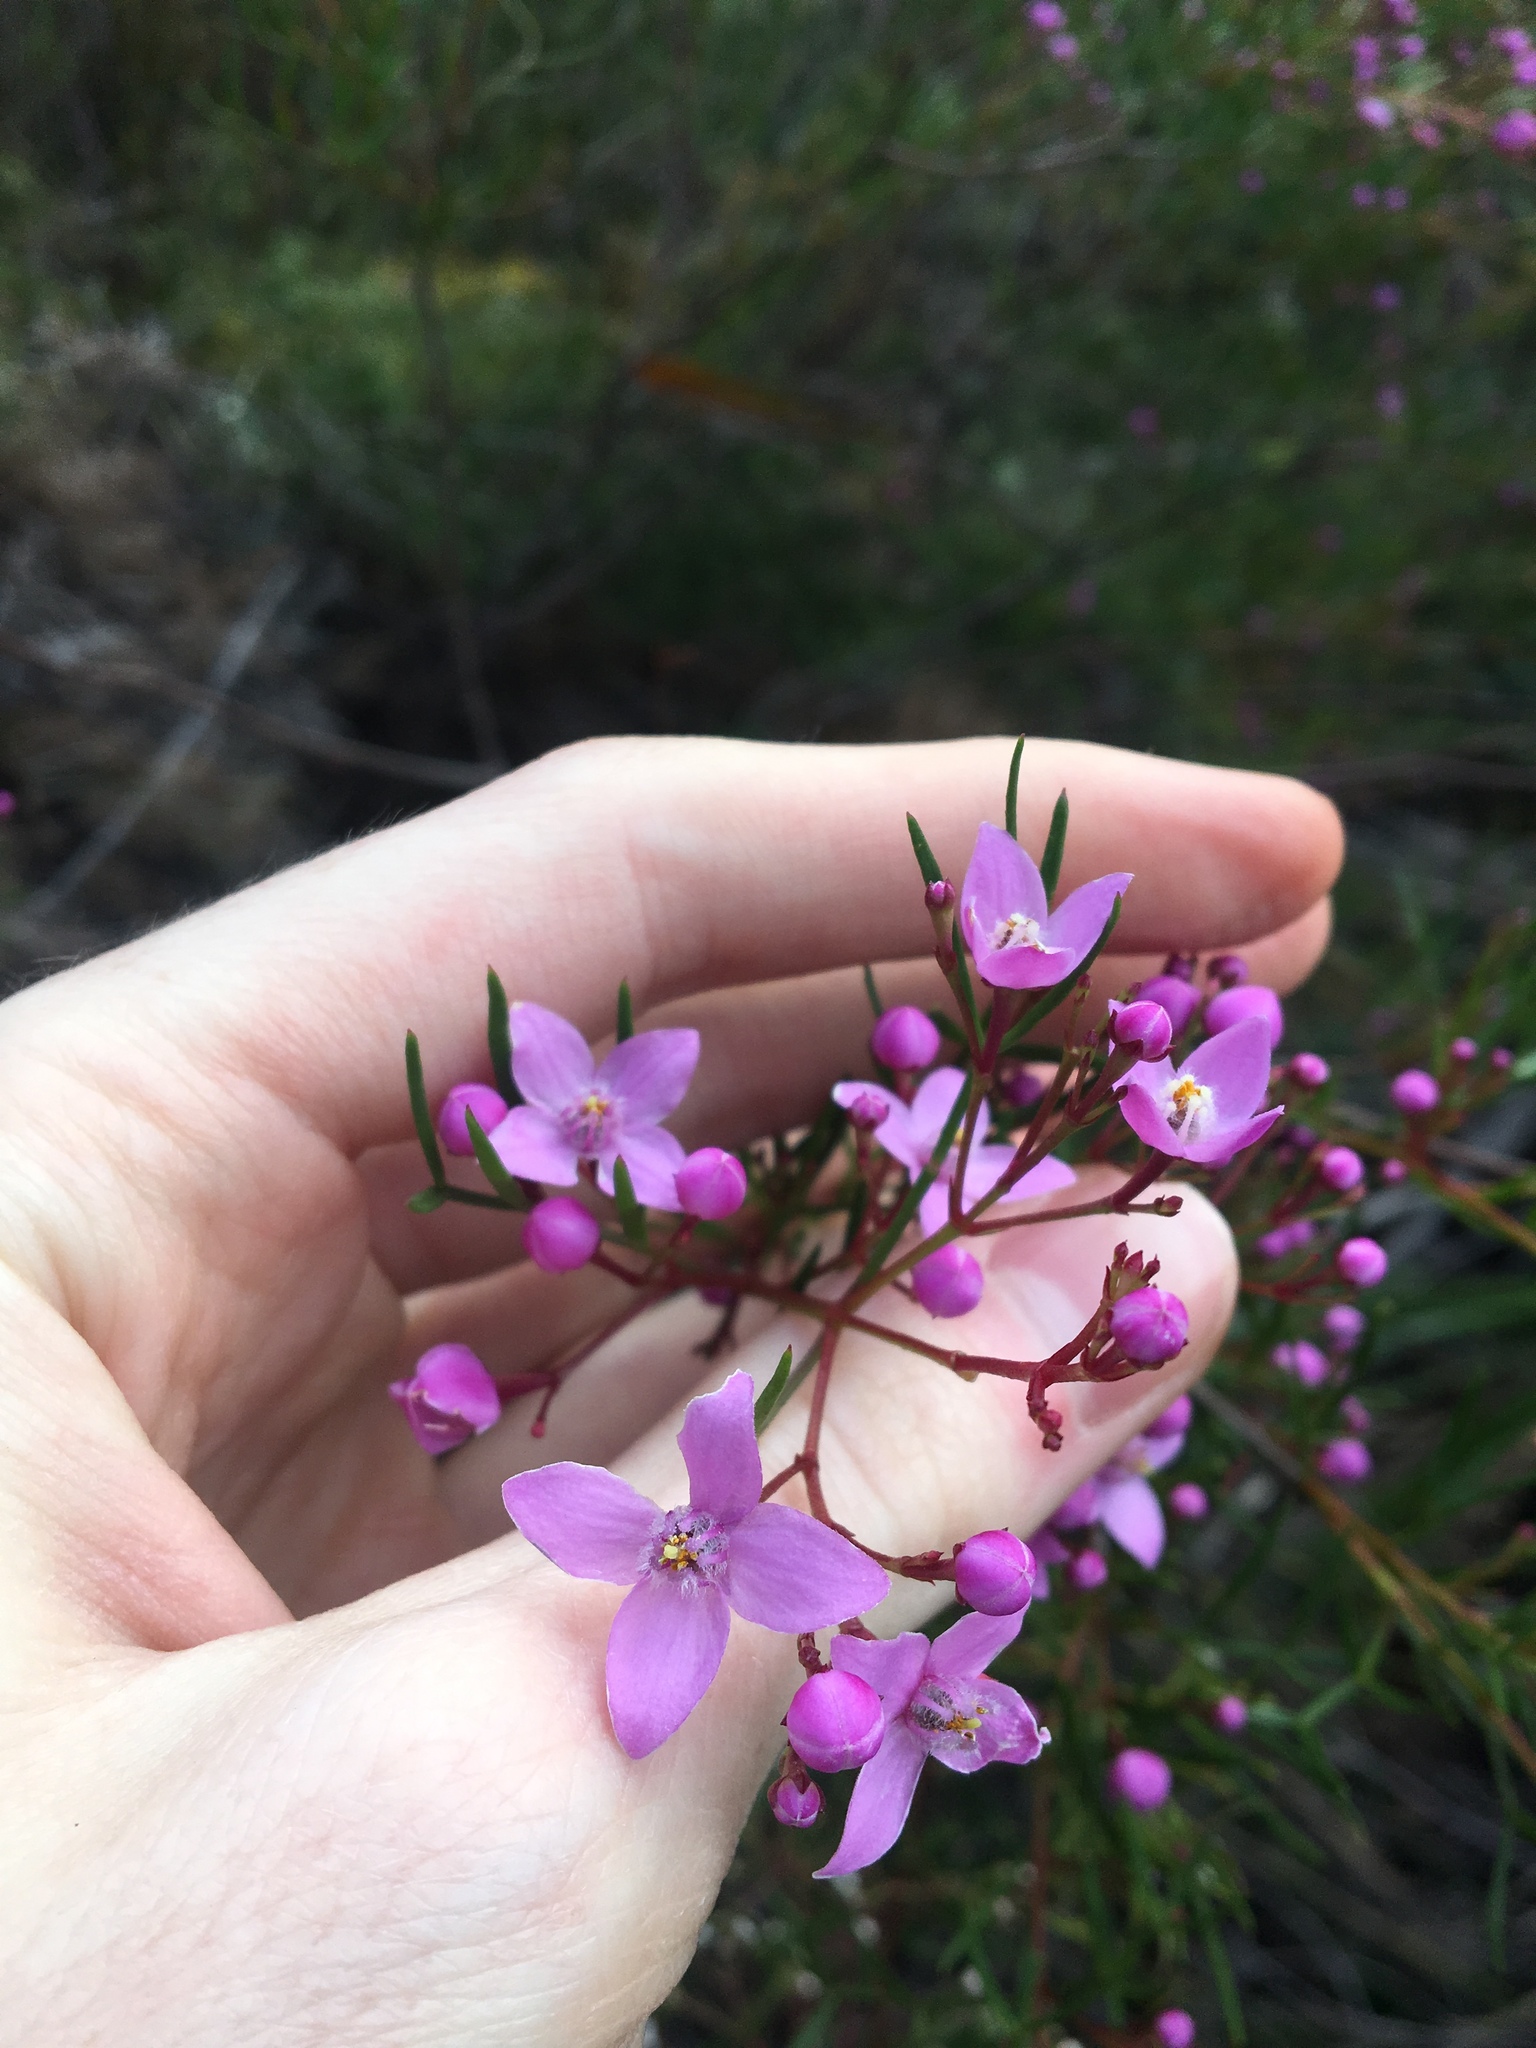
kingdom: Plantae
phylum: Tracheophyta
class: Magnoliopsida
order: Sapindales
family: Rutaceae
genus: Boronia
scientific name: Boronia pinnata
